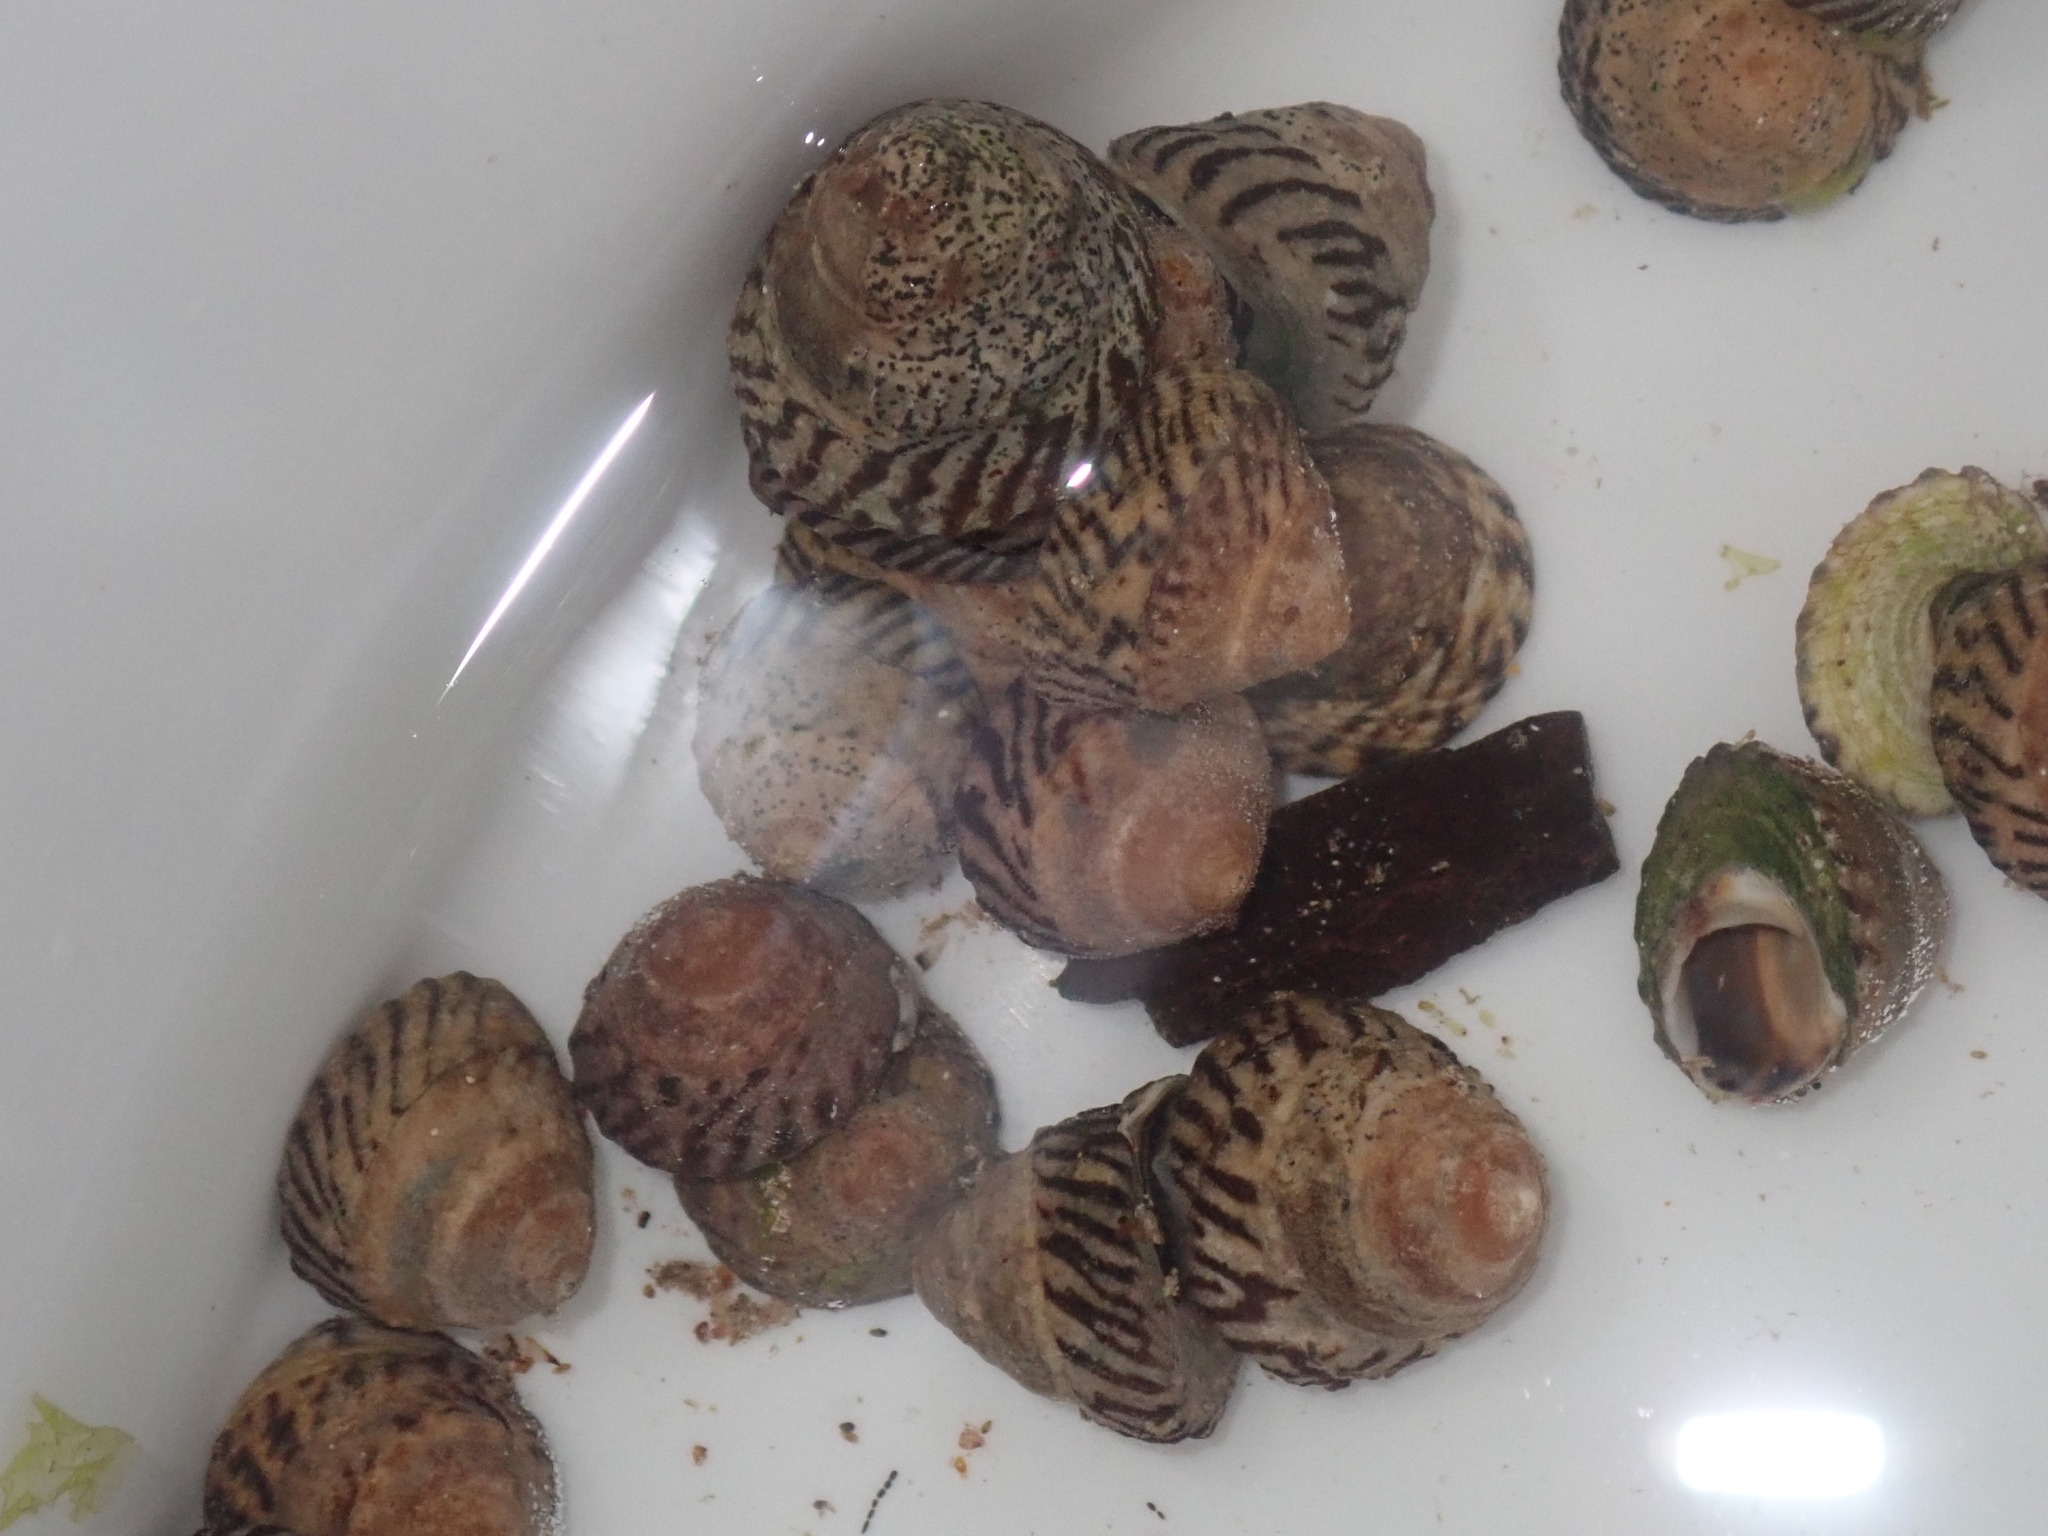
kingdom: Animalia
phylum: Mollusca
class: Gastropoda
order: Littorinimorpha
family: Littorinidae
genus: Bembicium
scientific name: Bembicium nanum
